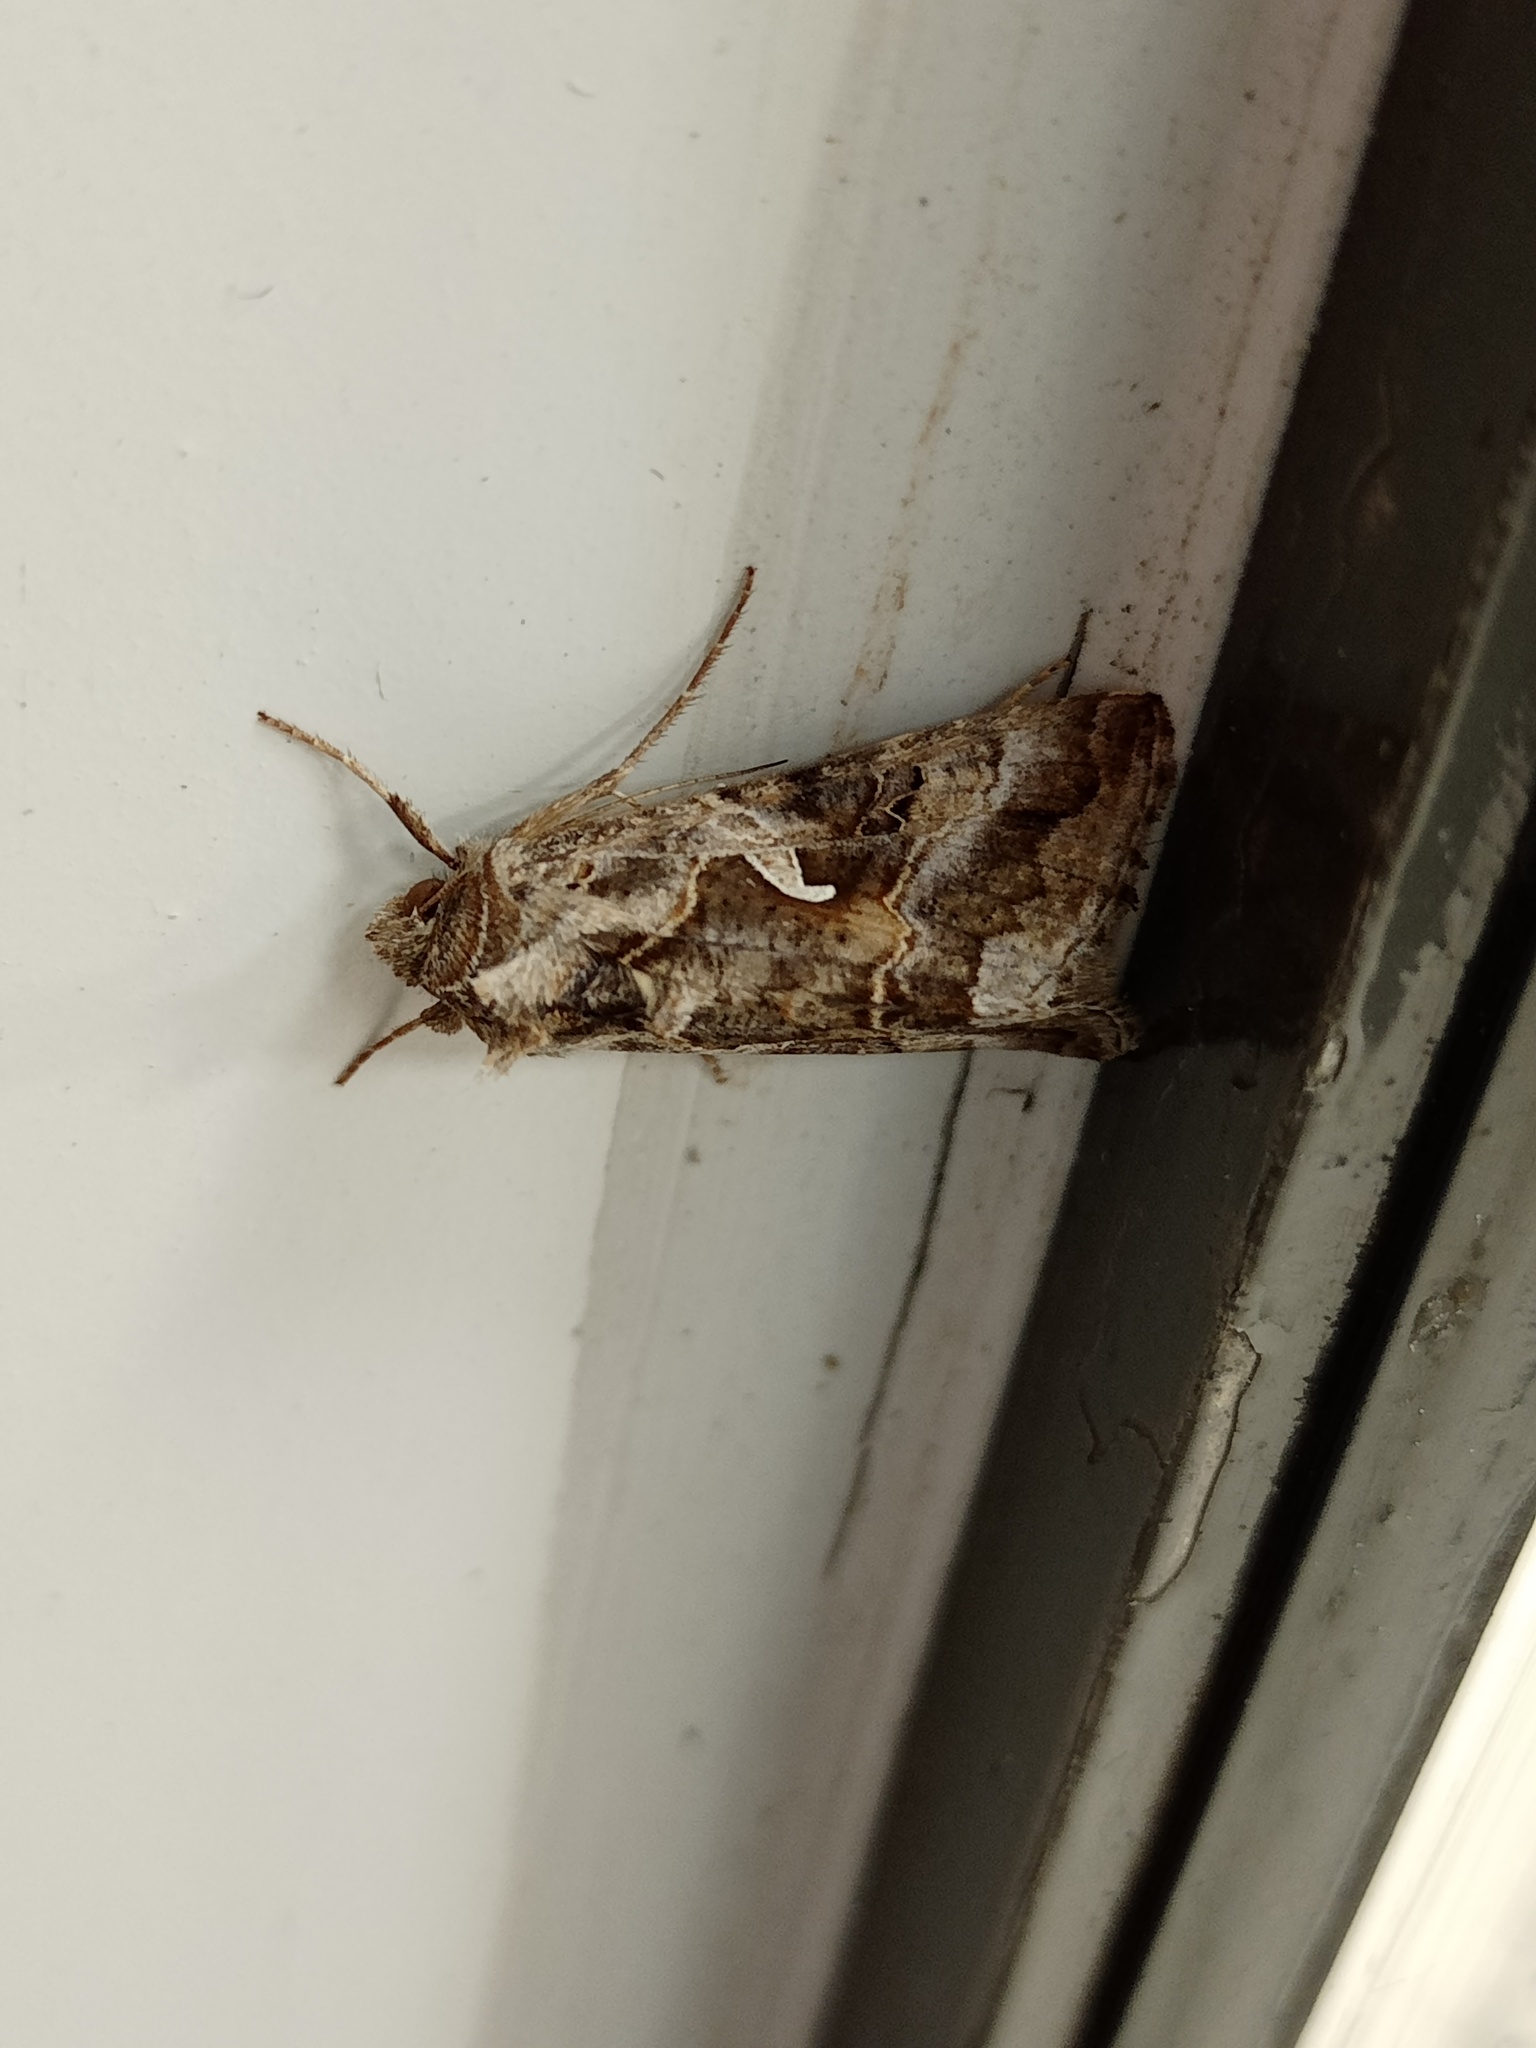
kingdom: Animalia
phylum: Arthropoda
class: Insecta
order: Lepidoptera
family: Noctuidae
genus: Autographa
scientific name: Autographa gamma
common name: Silver y
